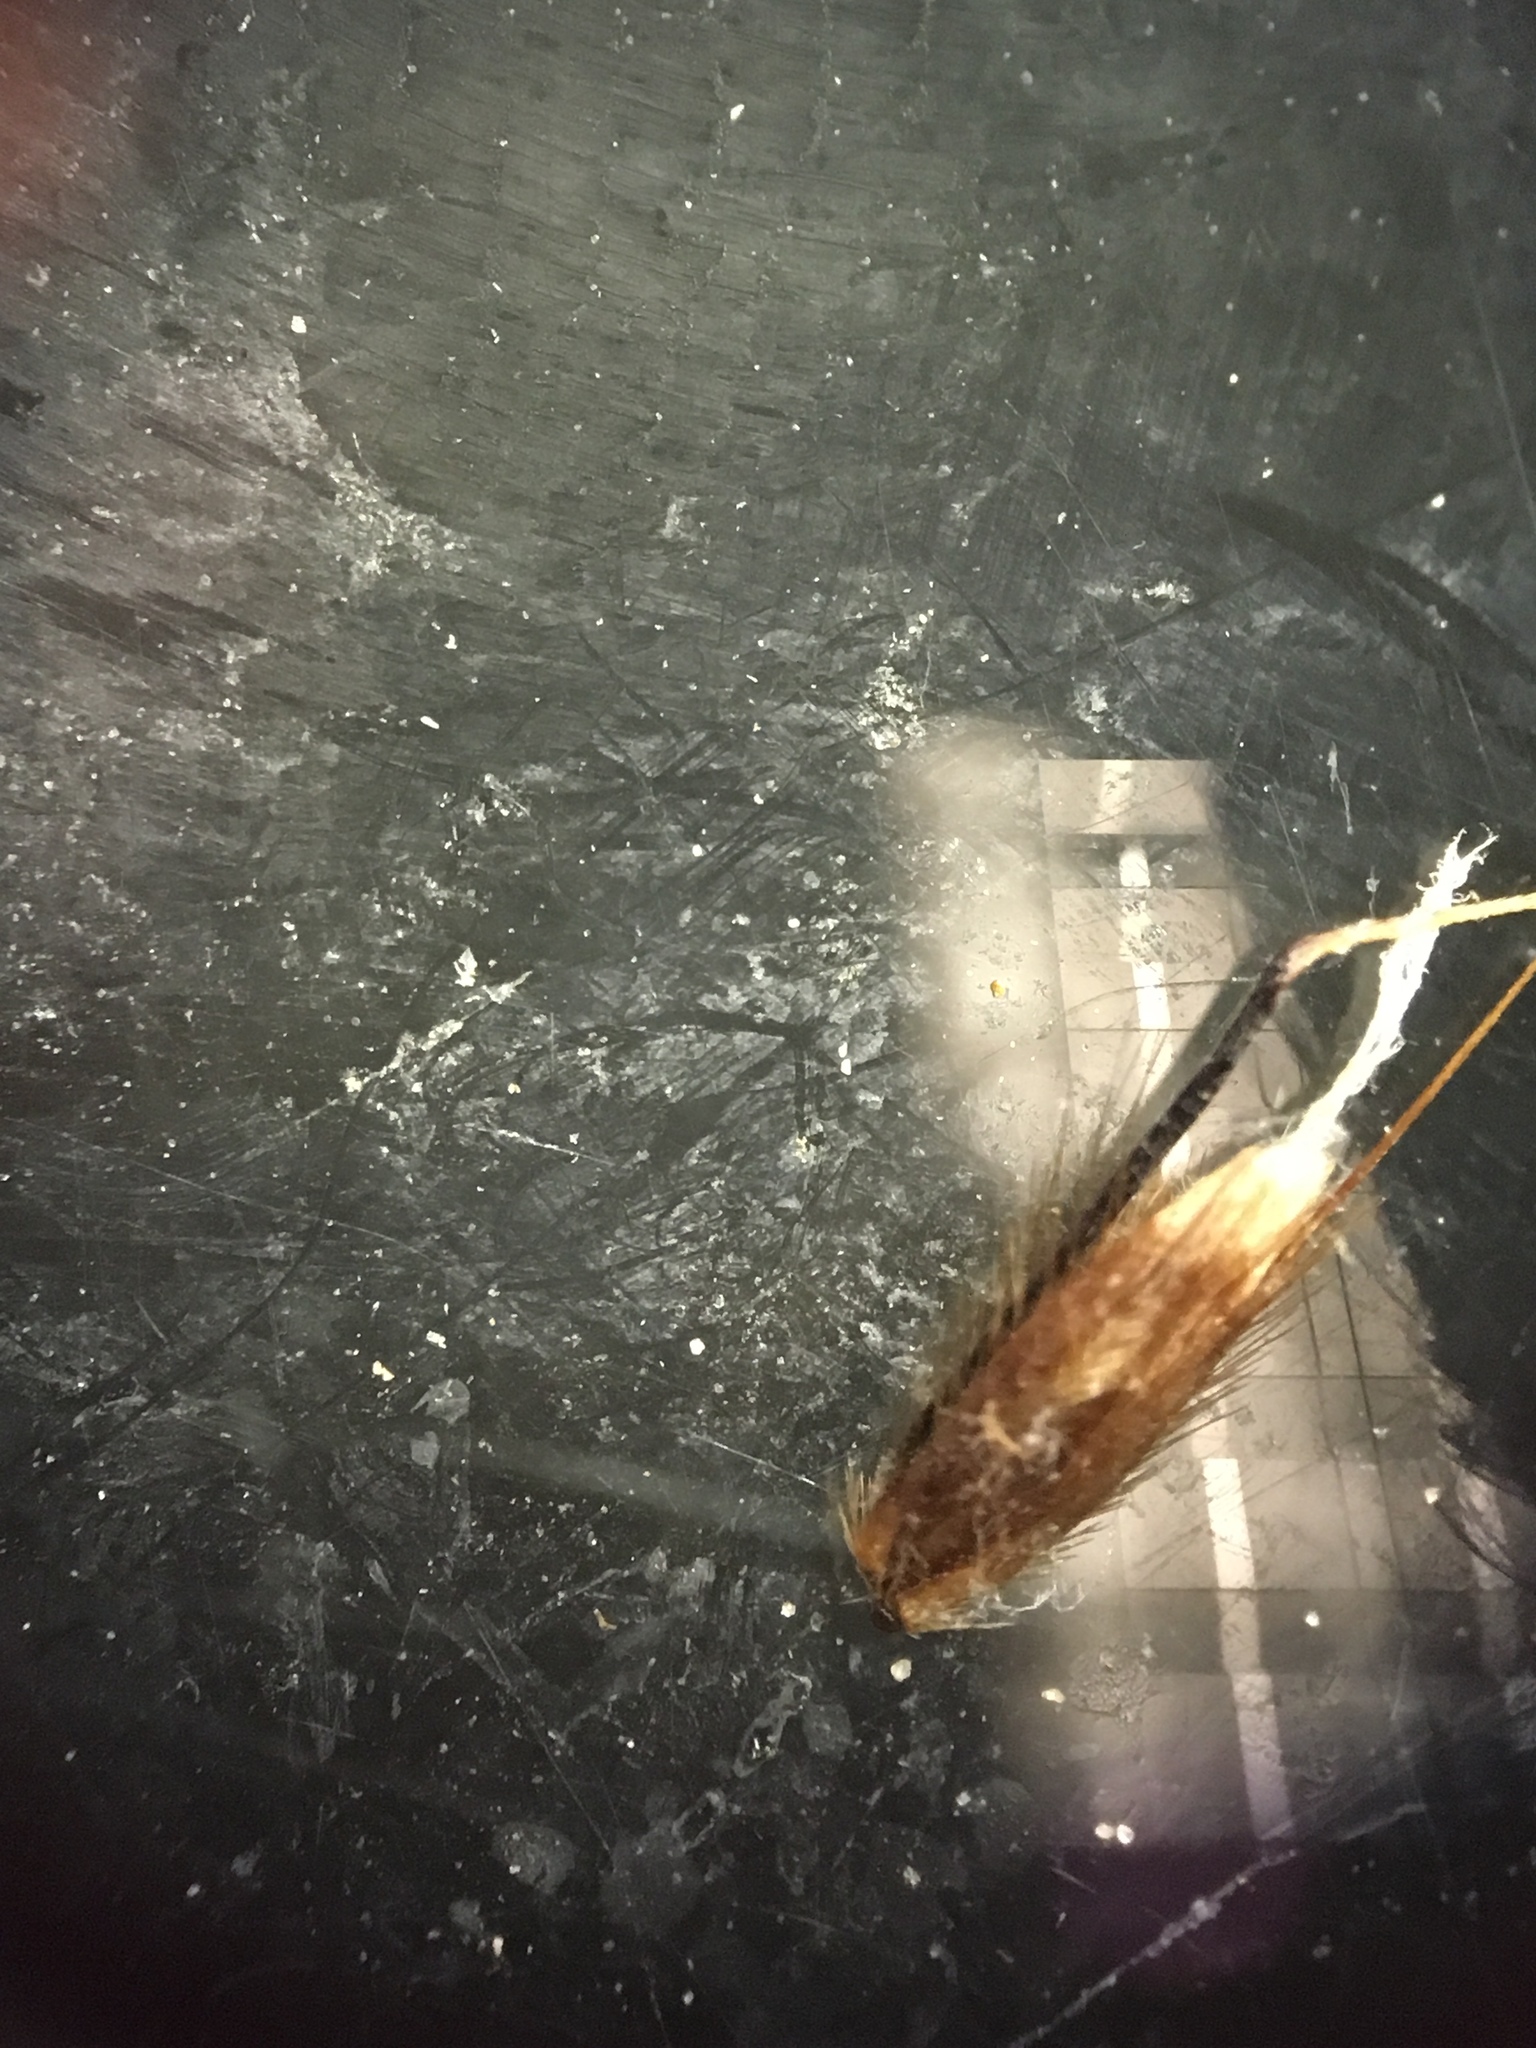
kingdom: Plantae
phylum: Tracheophyta
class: Liliopsida
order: Poales
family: Poaceae
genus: Anthoxanthum
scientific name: Anthoxanthum odoratum
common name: Sweet vernalgrass
